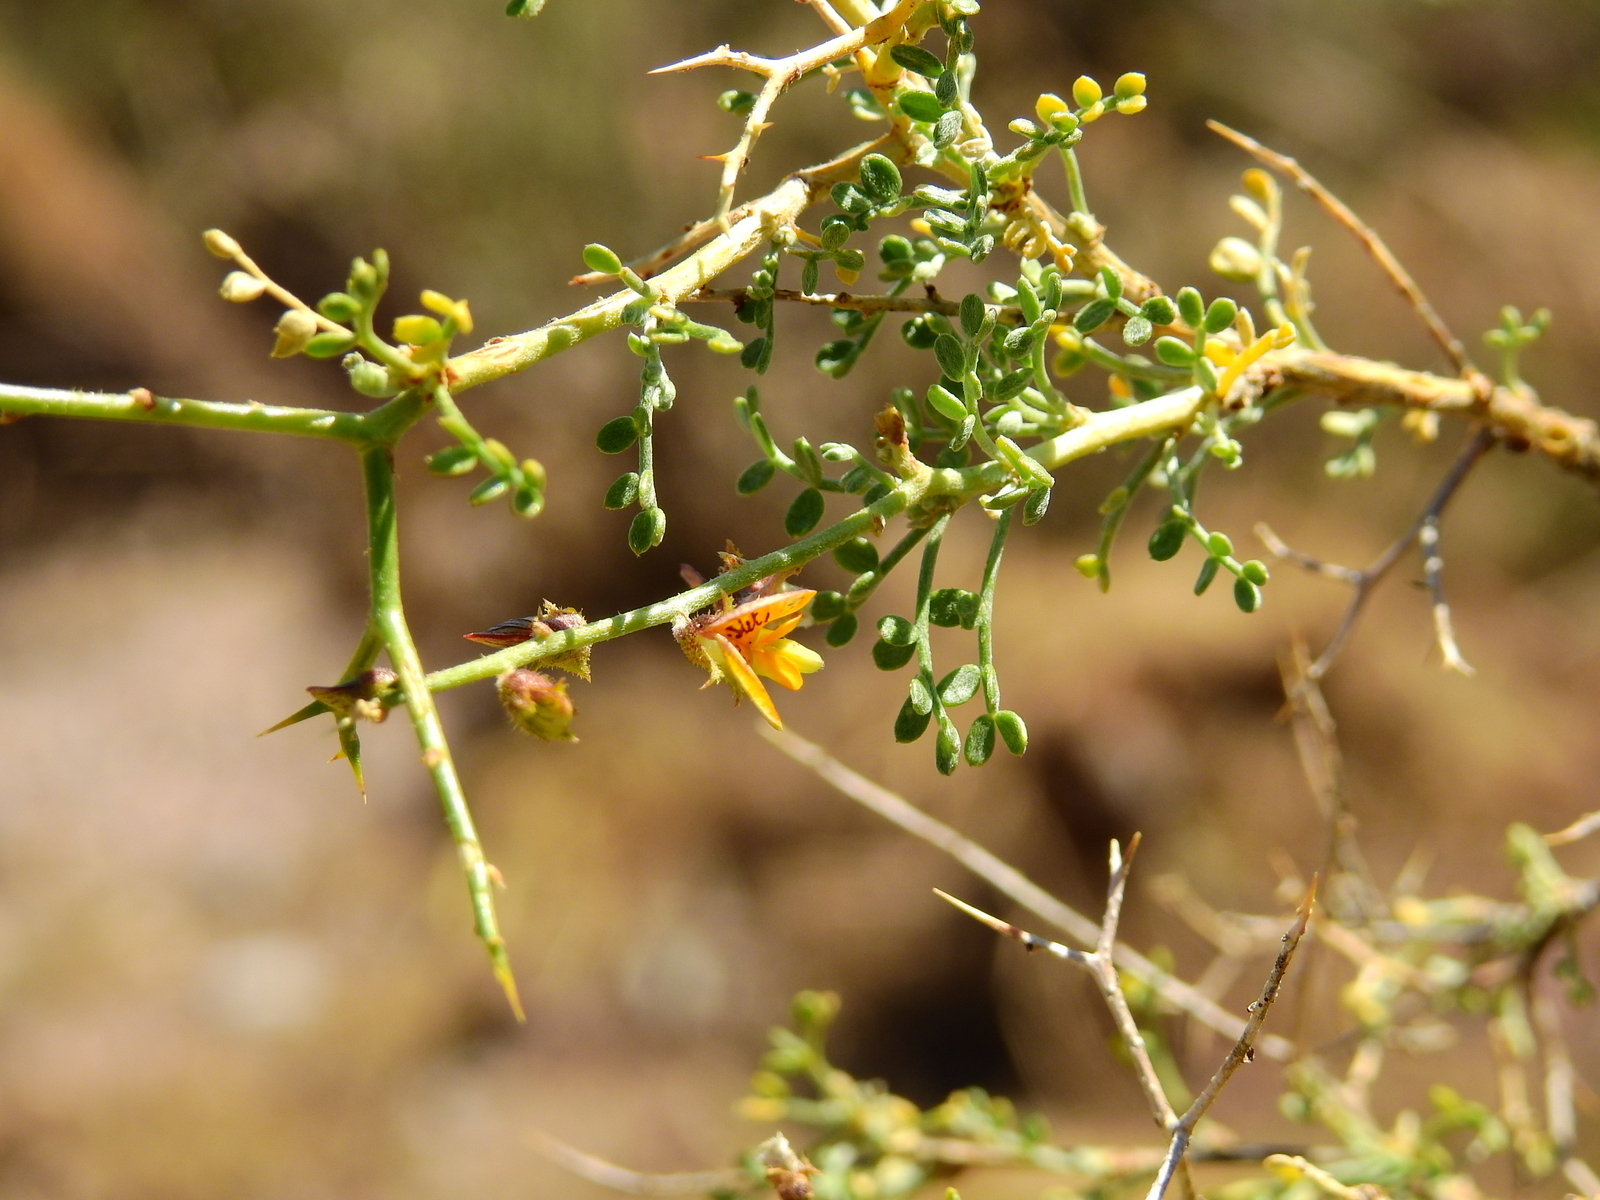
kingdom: Plantae
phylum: Tracheophyta
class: Magnoliopsida
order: Fabales
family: Fabaceae
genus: Adesmia
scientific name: Adesmia trijuga
